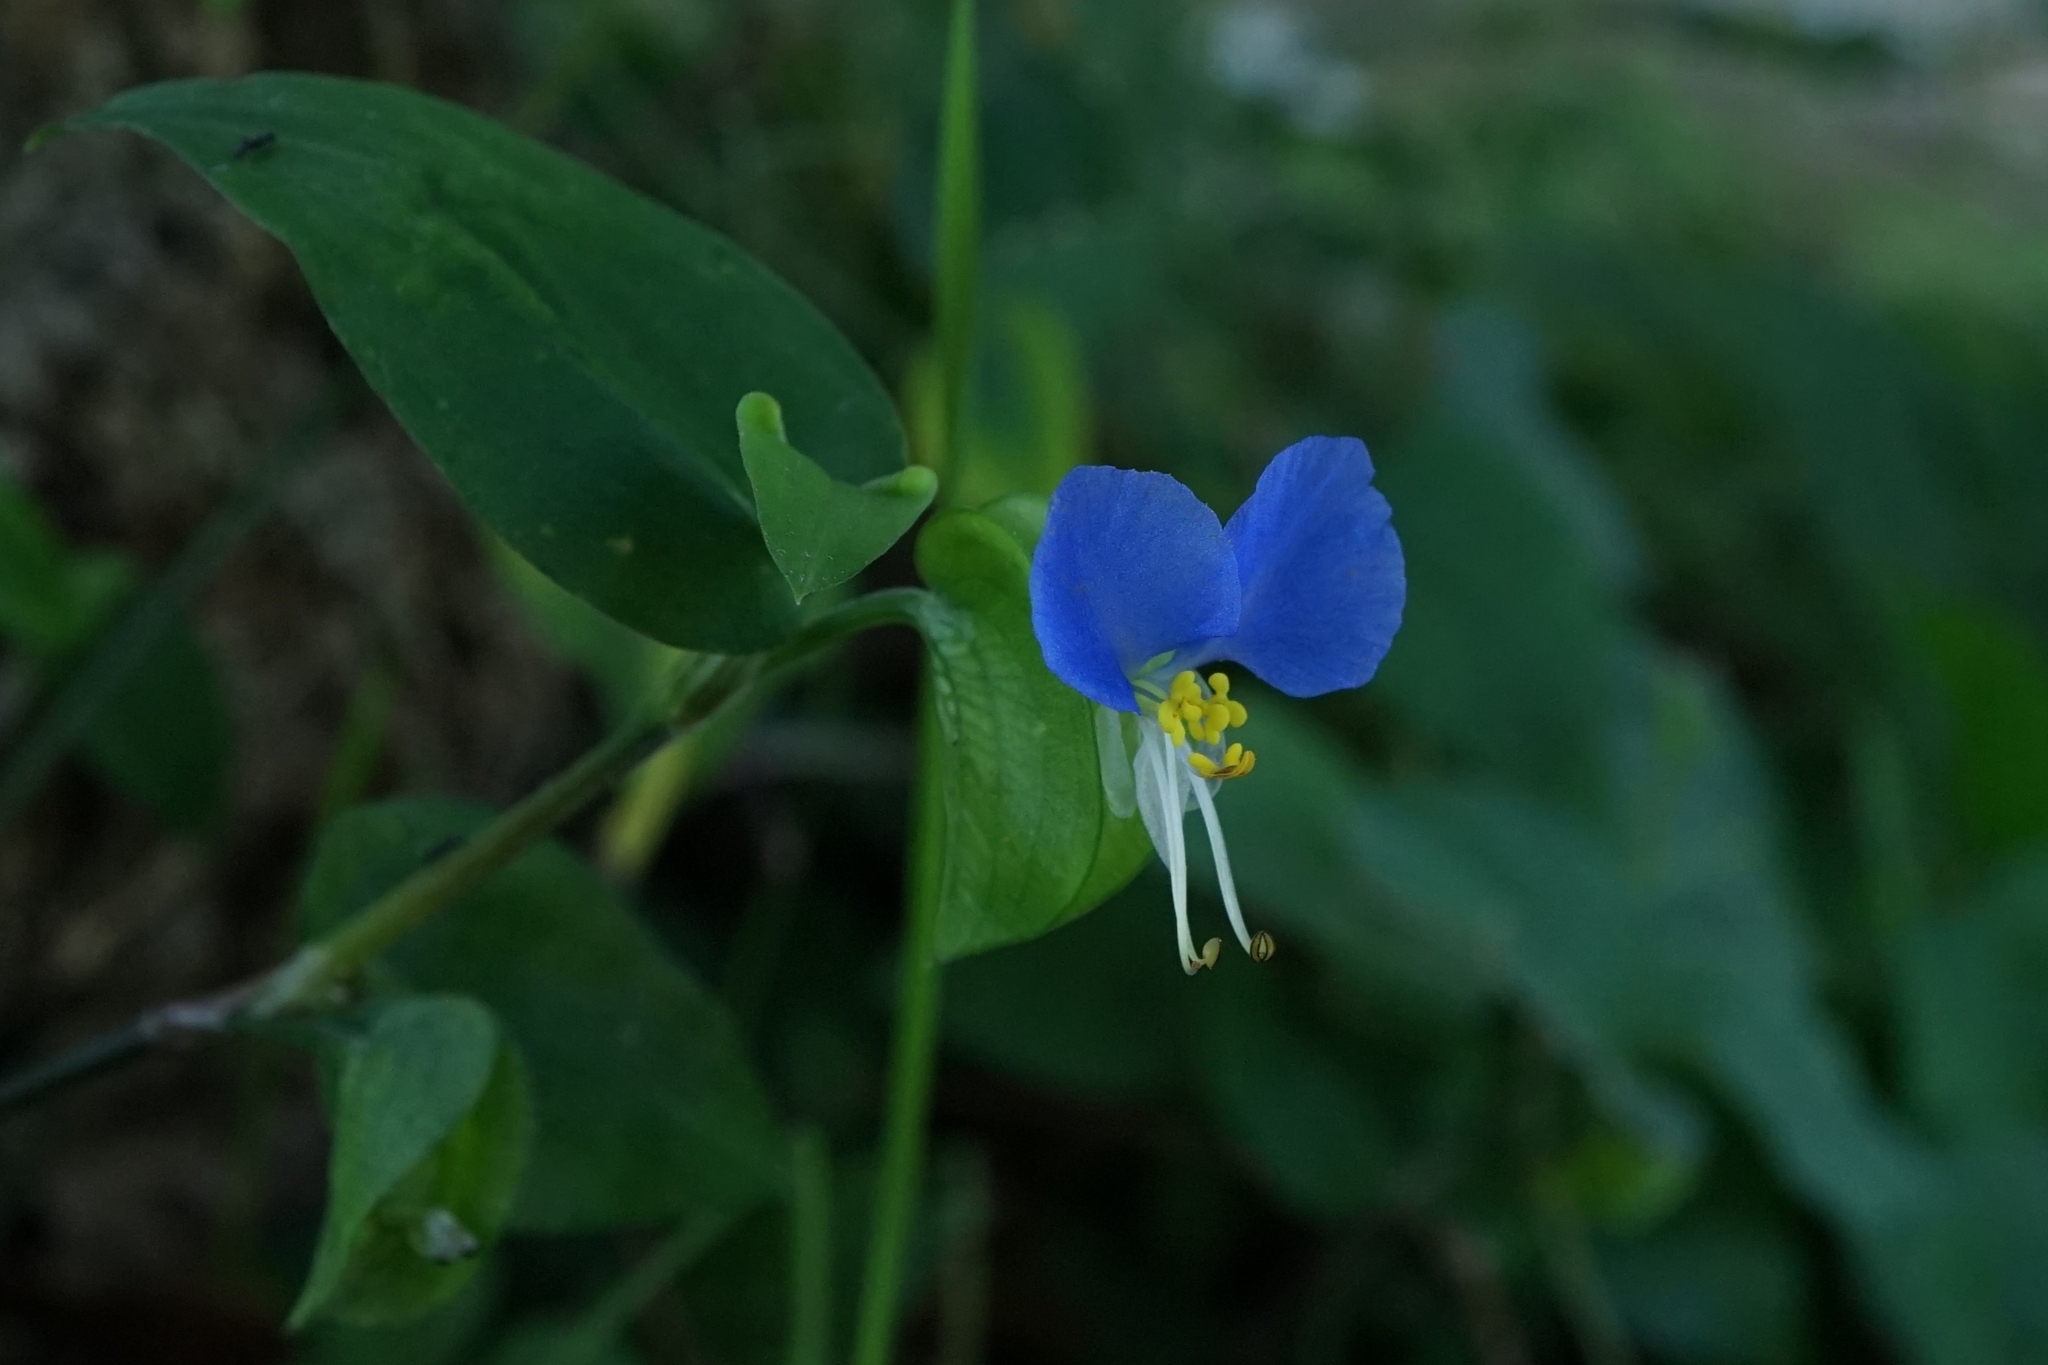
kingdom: Plantae
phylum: Tracheophyta
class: Liliopsida
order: Commelinales
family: Commelinaceae
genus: Commelina
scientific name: Commelina communis
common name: Asiatic dayflower
